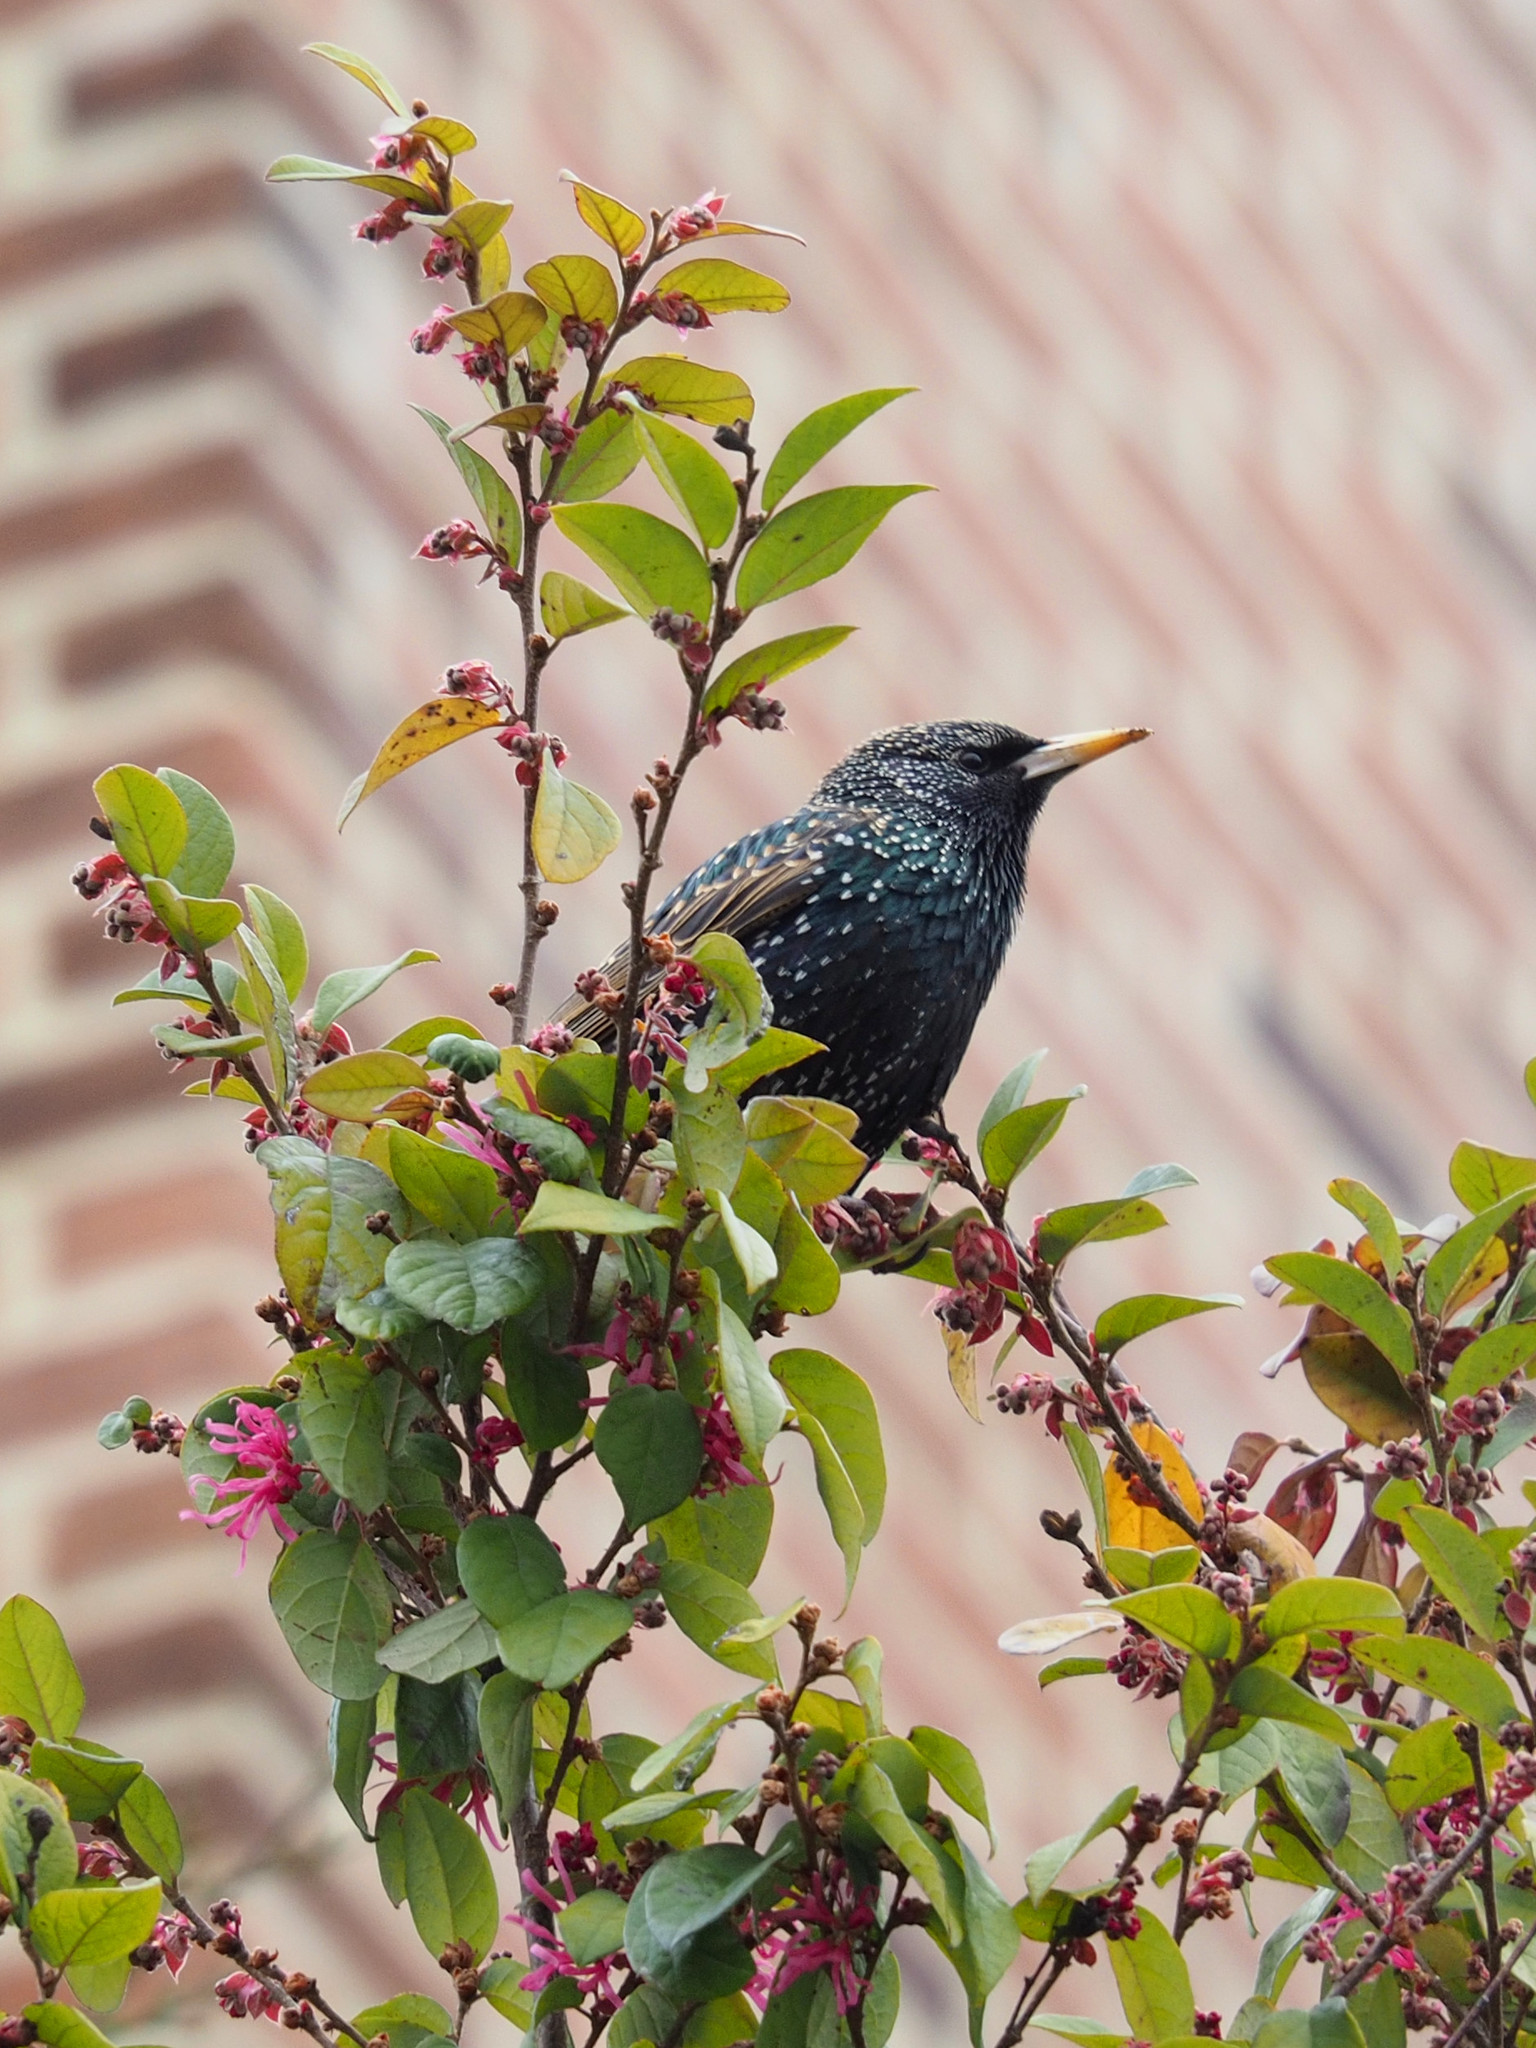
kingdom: Animalia
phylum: Chordata
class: Aves
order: Passeriformes
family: Sturnidae
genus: Sturnus
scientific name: Sturnus vulgaris
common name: Common starling
